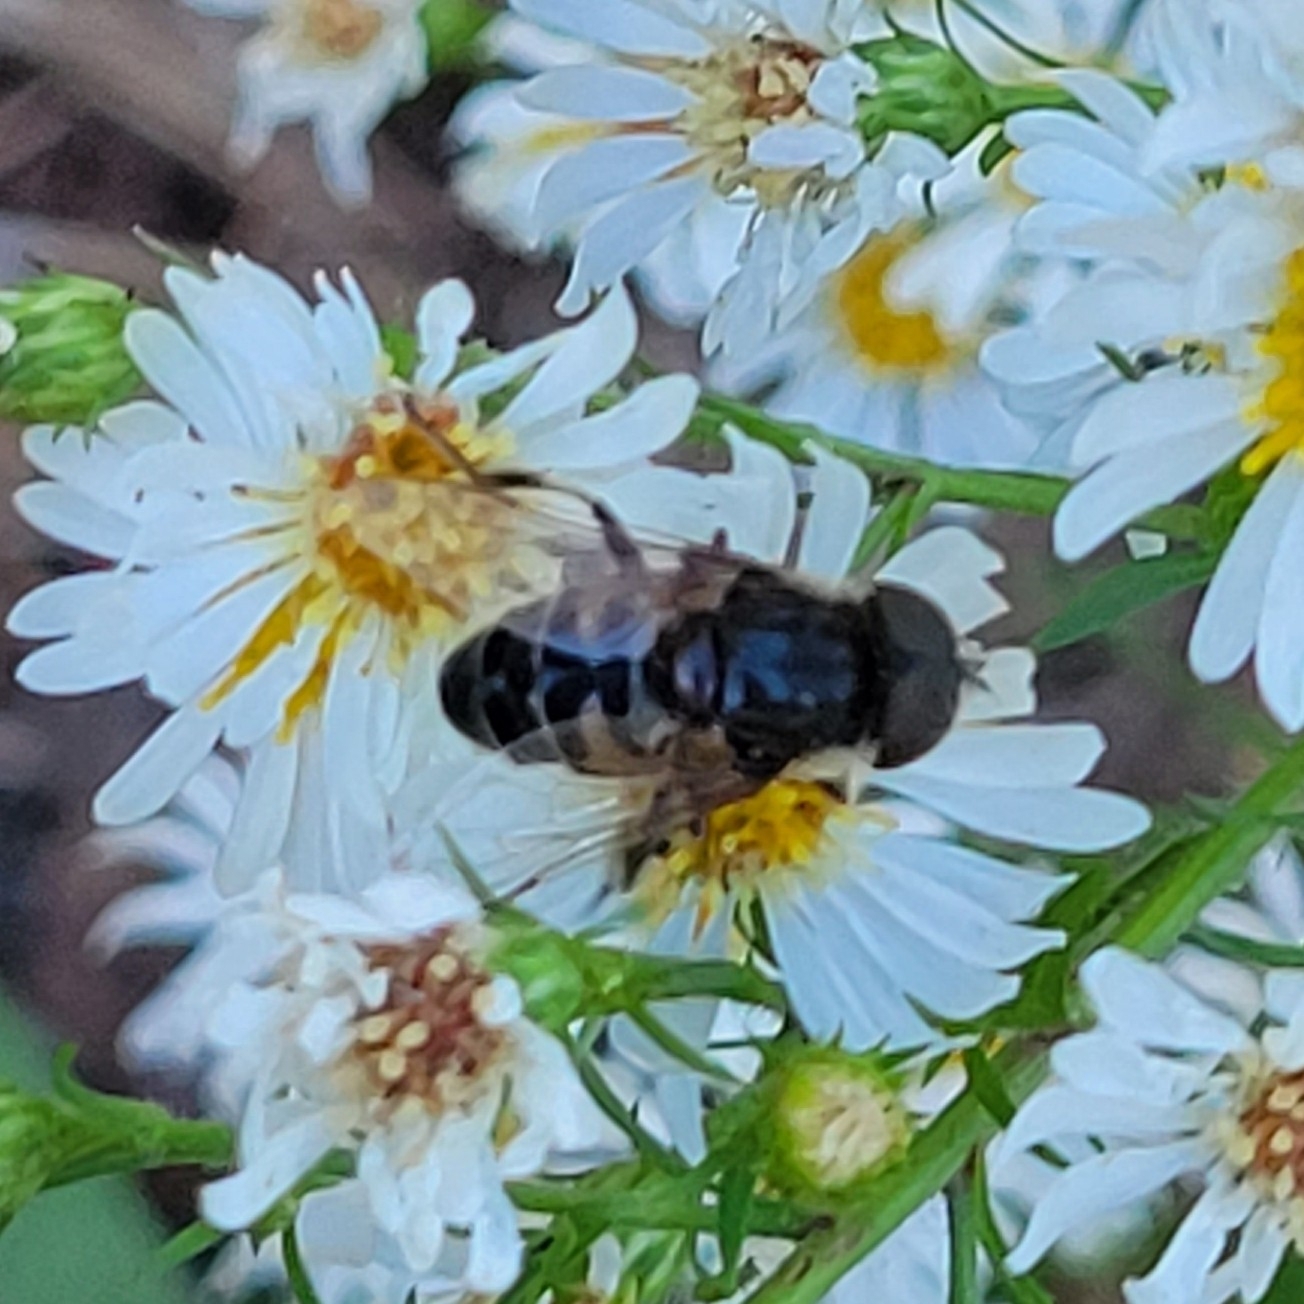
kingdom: Animalia
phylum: Arthropoda
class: Insecta
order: Diptera
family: Syrphidae
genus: Eristalis
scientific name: Eristalis dimidiata
